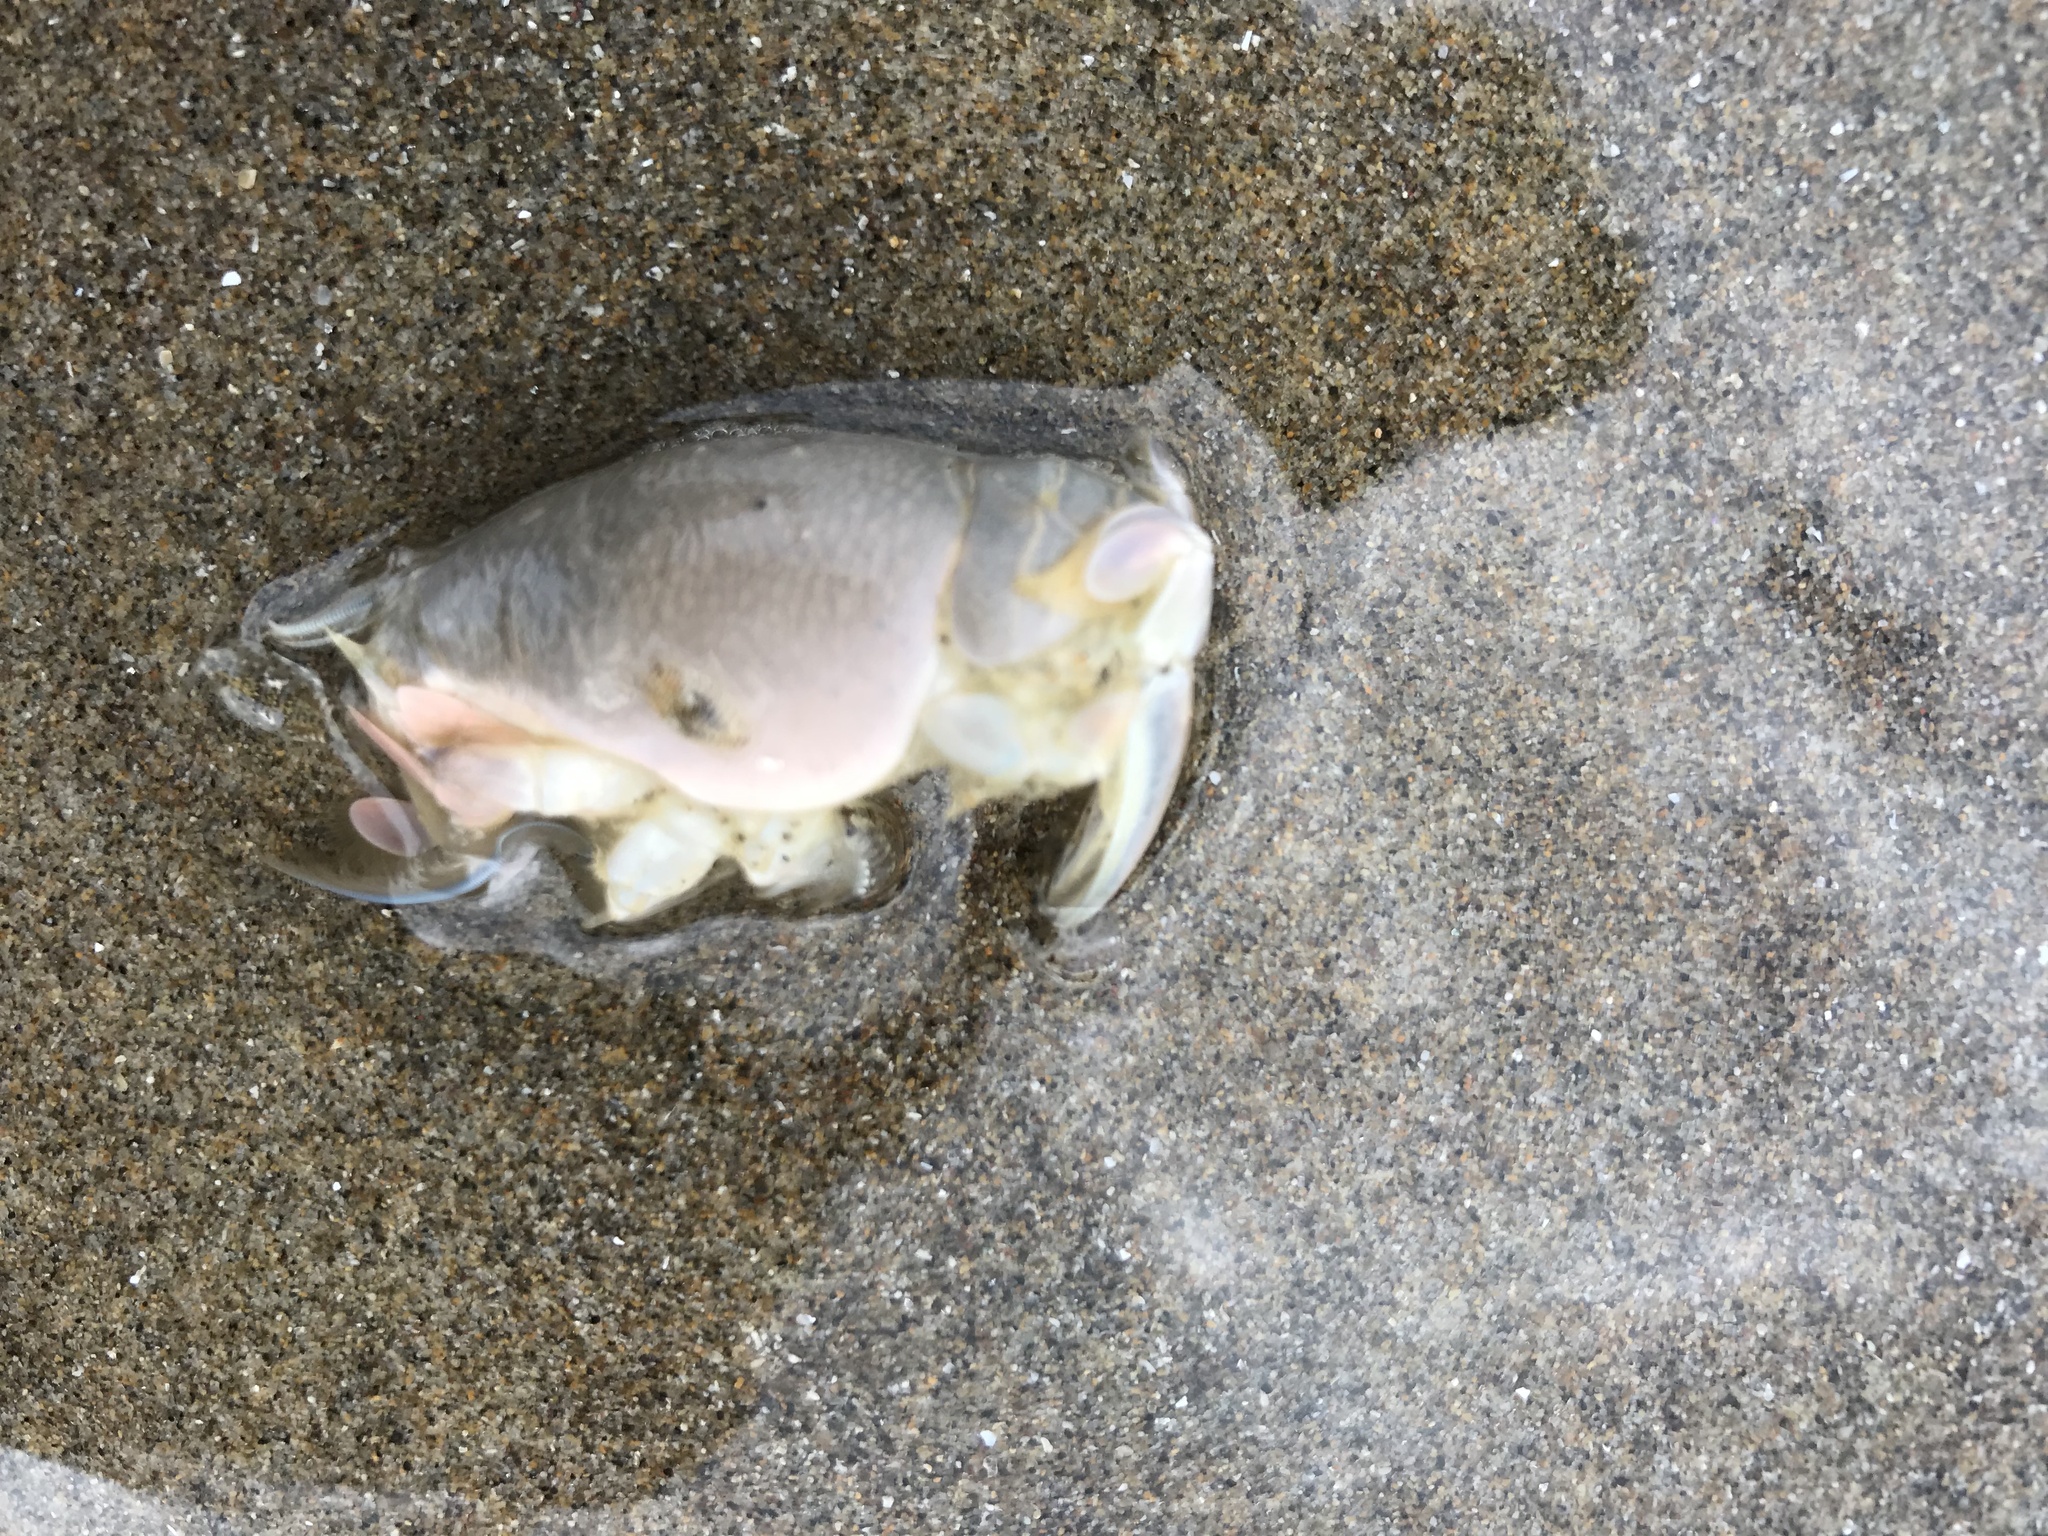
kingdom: Animalia
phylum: Arthropoda
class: Malacostraca
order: Decapoda
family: Hippidae
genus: Emerita
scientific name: Emerita analoga
